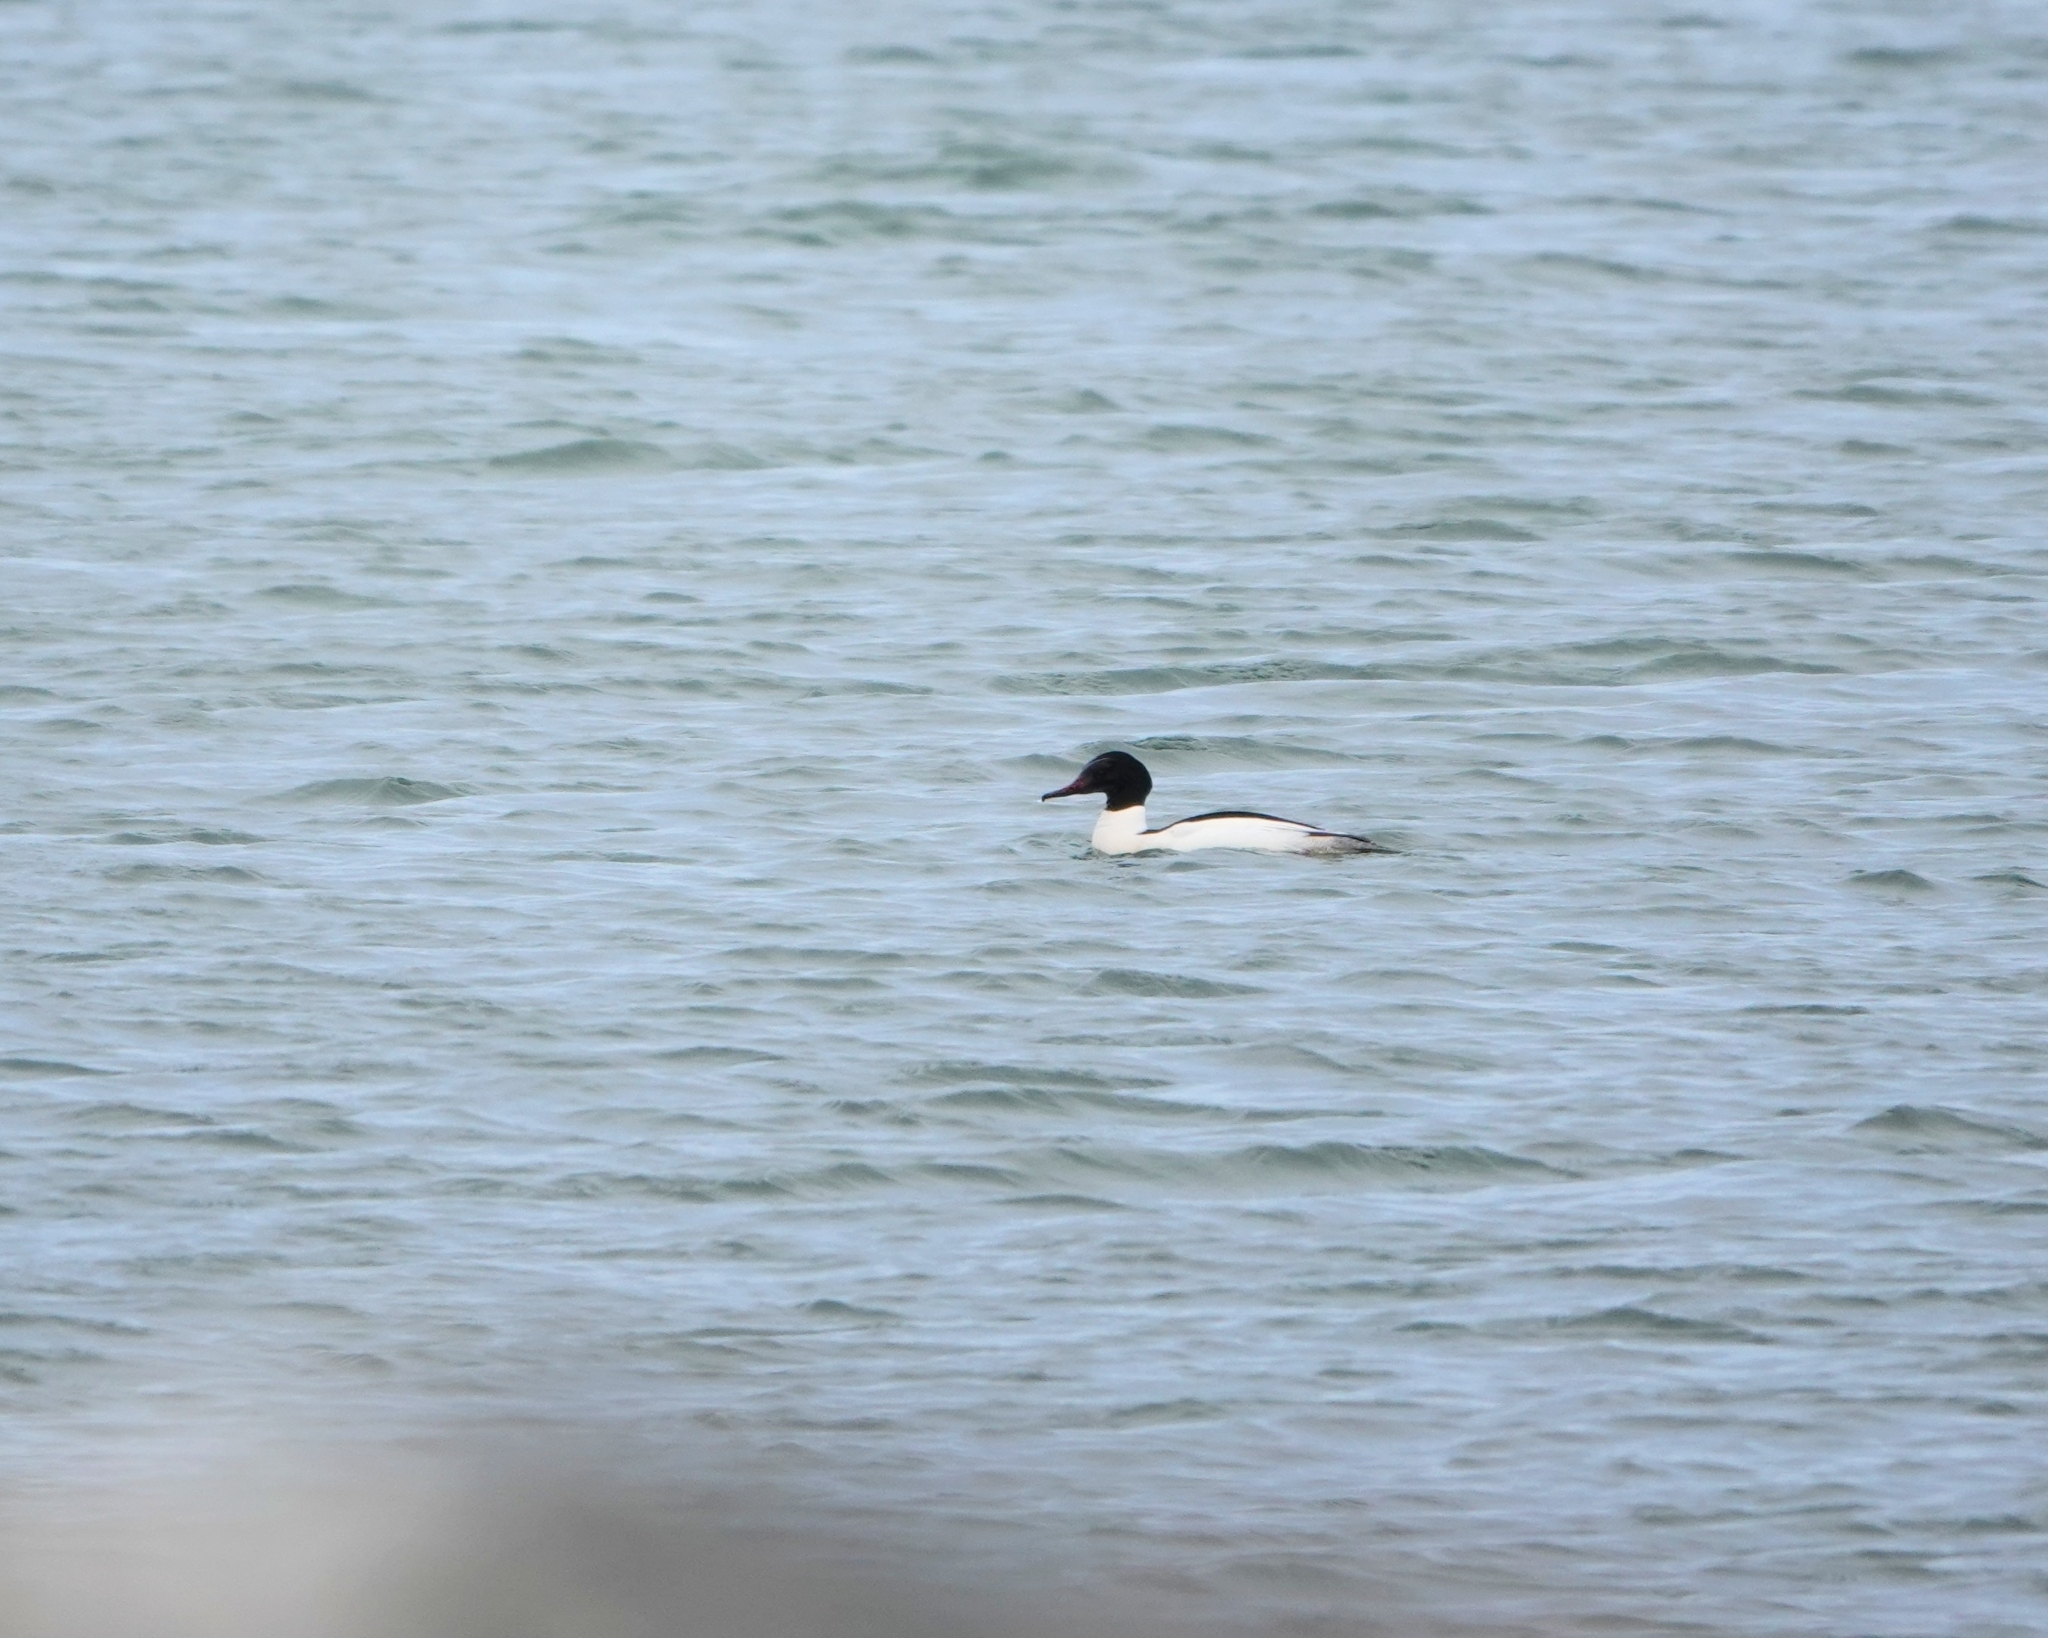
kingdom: Animalia
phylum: Chordata
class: Aves
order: Anseriformes
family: Anatidae
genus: Mergus
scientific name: Mergus merganser
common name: Common merganser
